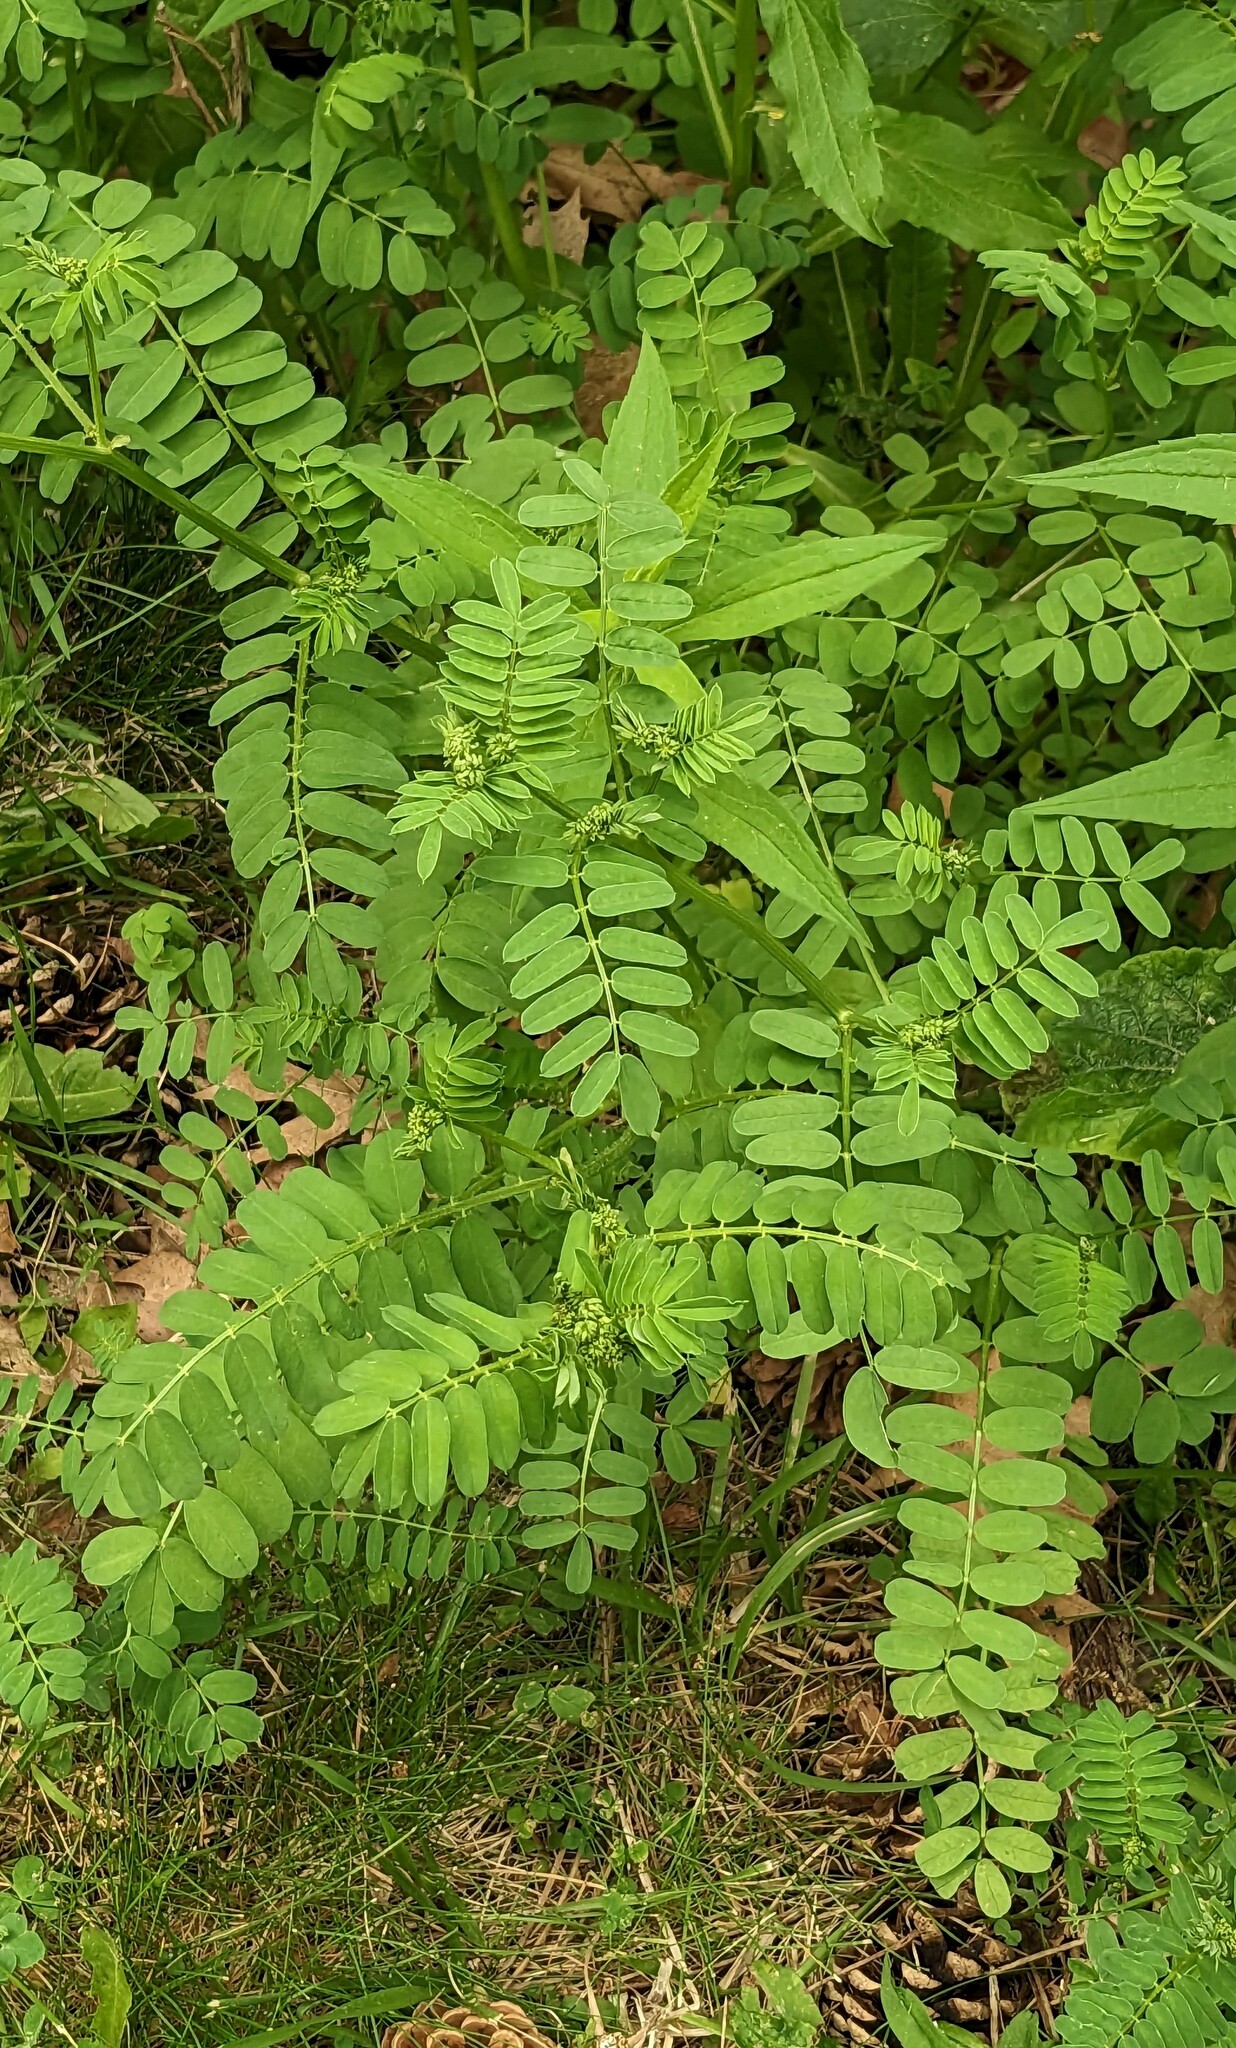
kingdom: Plantae
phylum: Tracheophyta
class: Magnoliopsida
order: Fabales
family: Fabaceae
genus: Coronilla
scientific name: Coronilla varia
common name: Crownvetch
